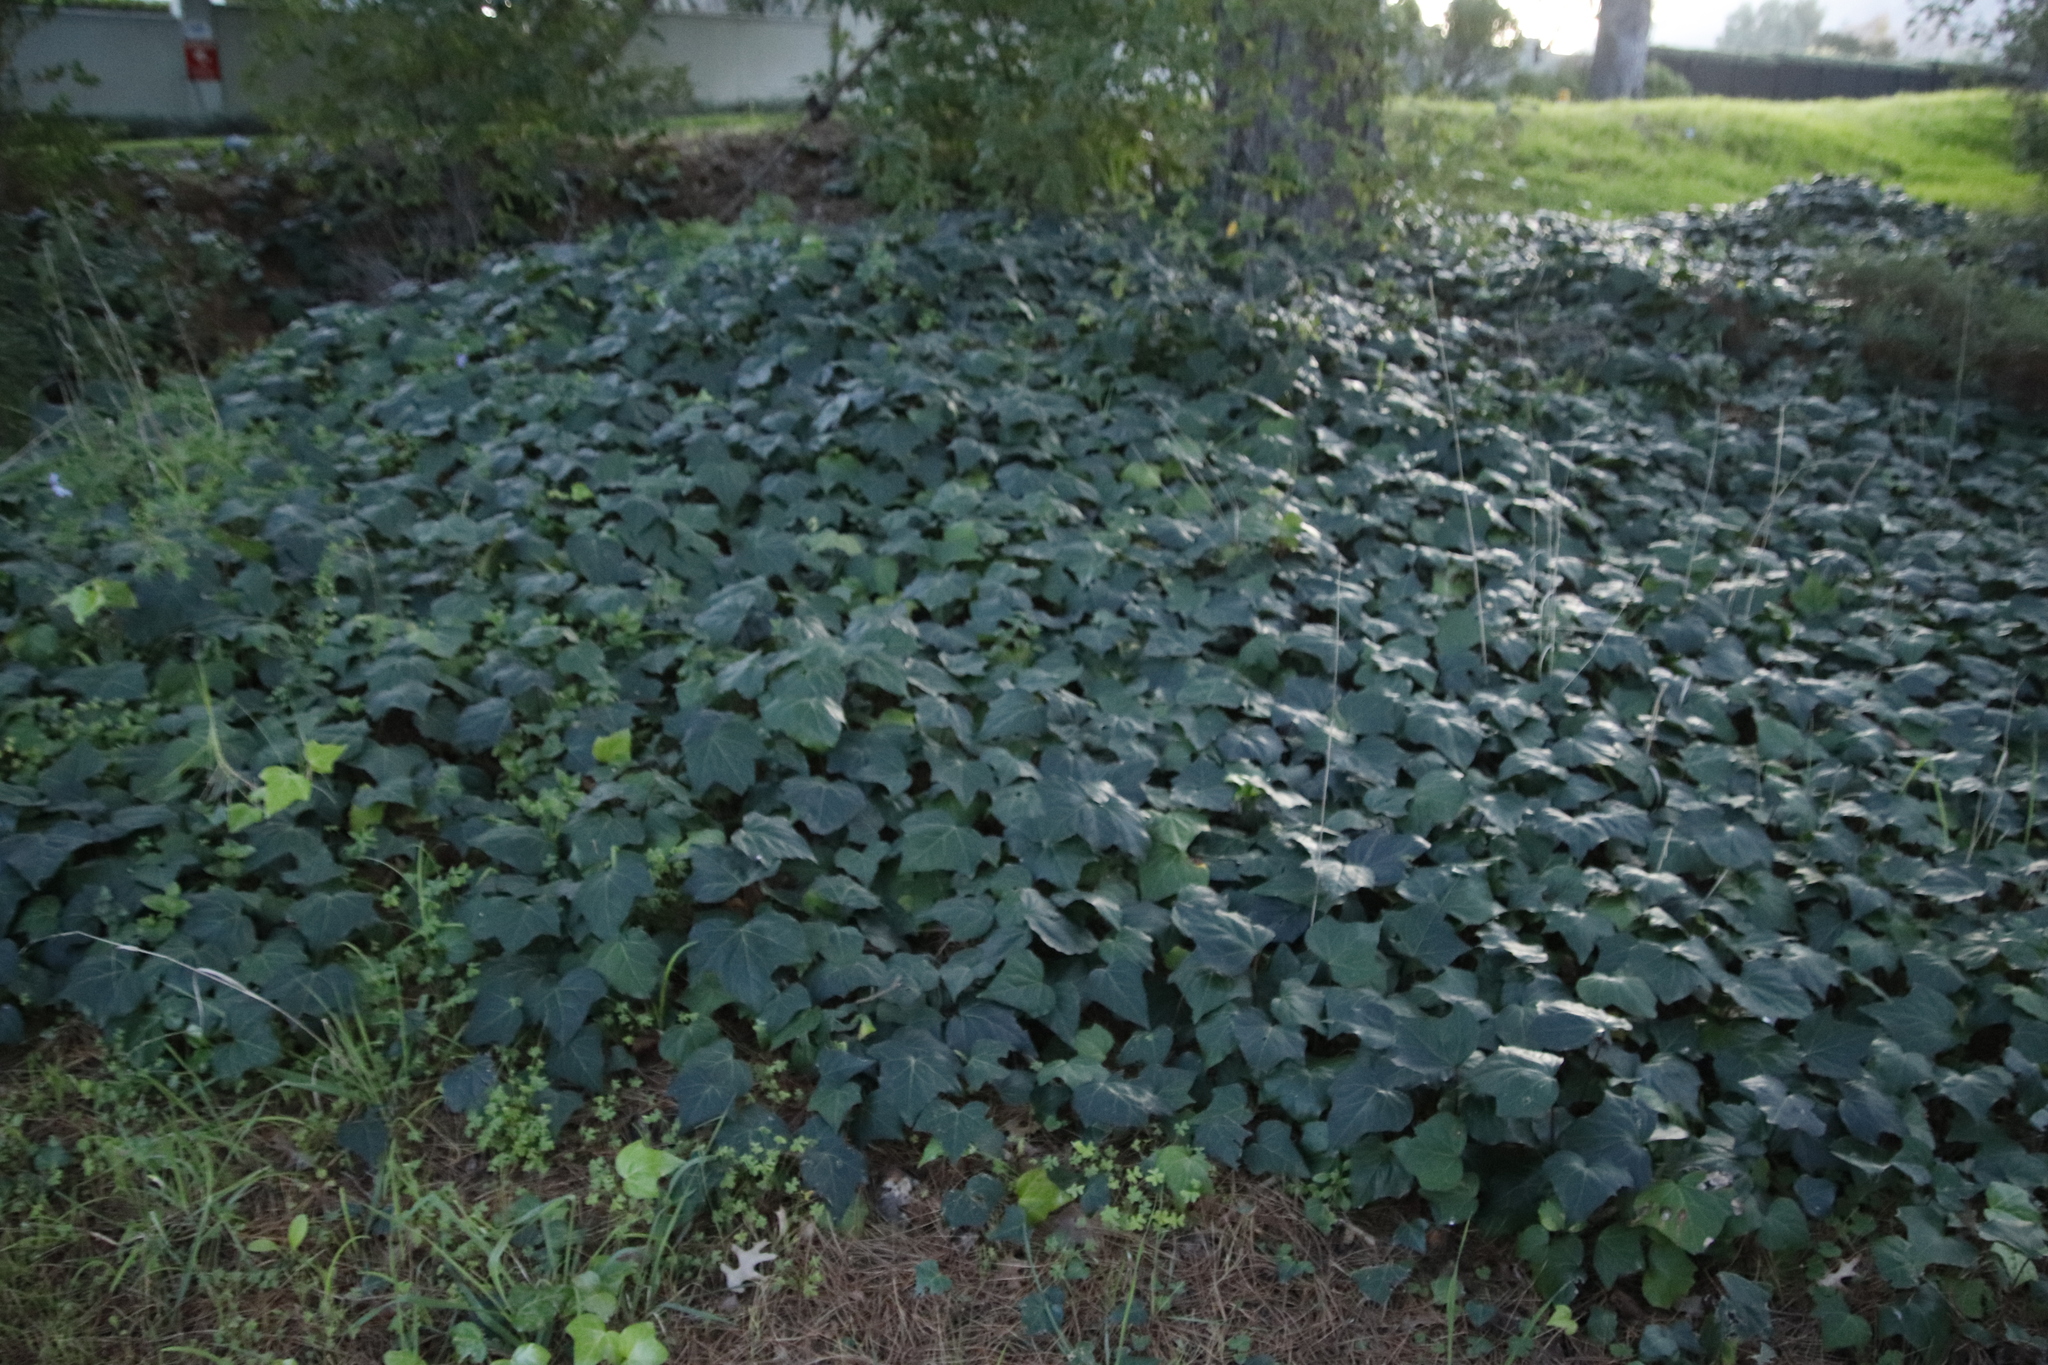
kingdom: Plantae
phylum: Tracheophyta
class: Magnoliopsida
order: Apiales
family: Araliaceae
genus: Hedera
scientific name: Hedera canariensis
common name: Madeira ivy
